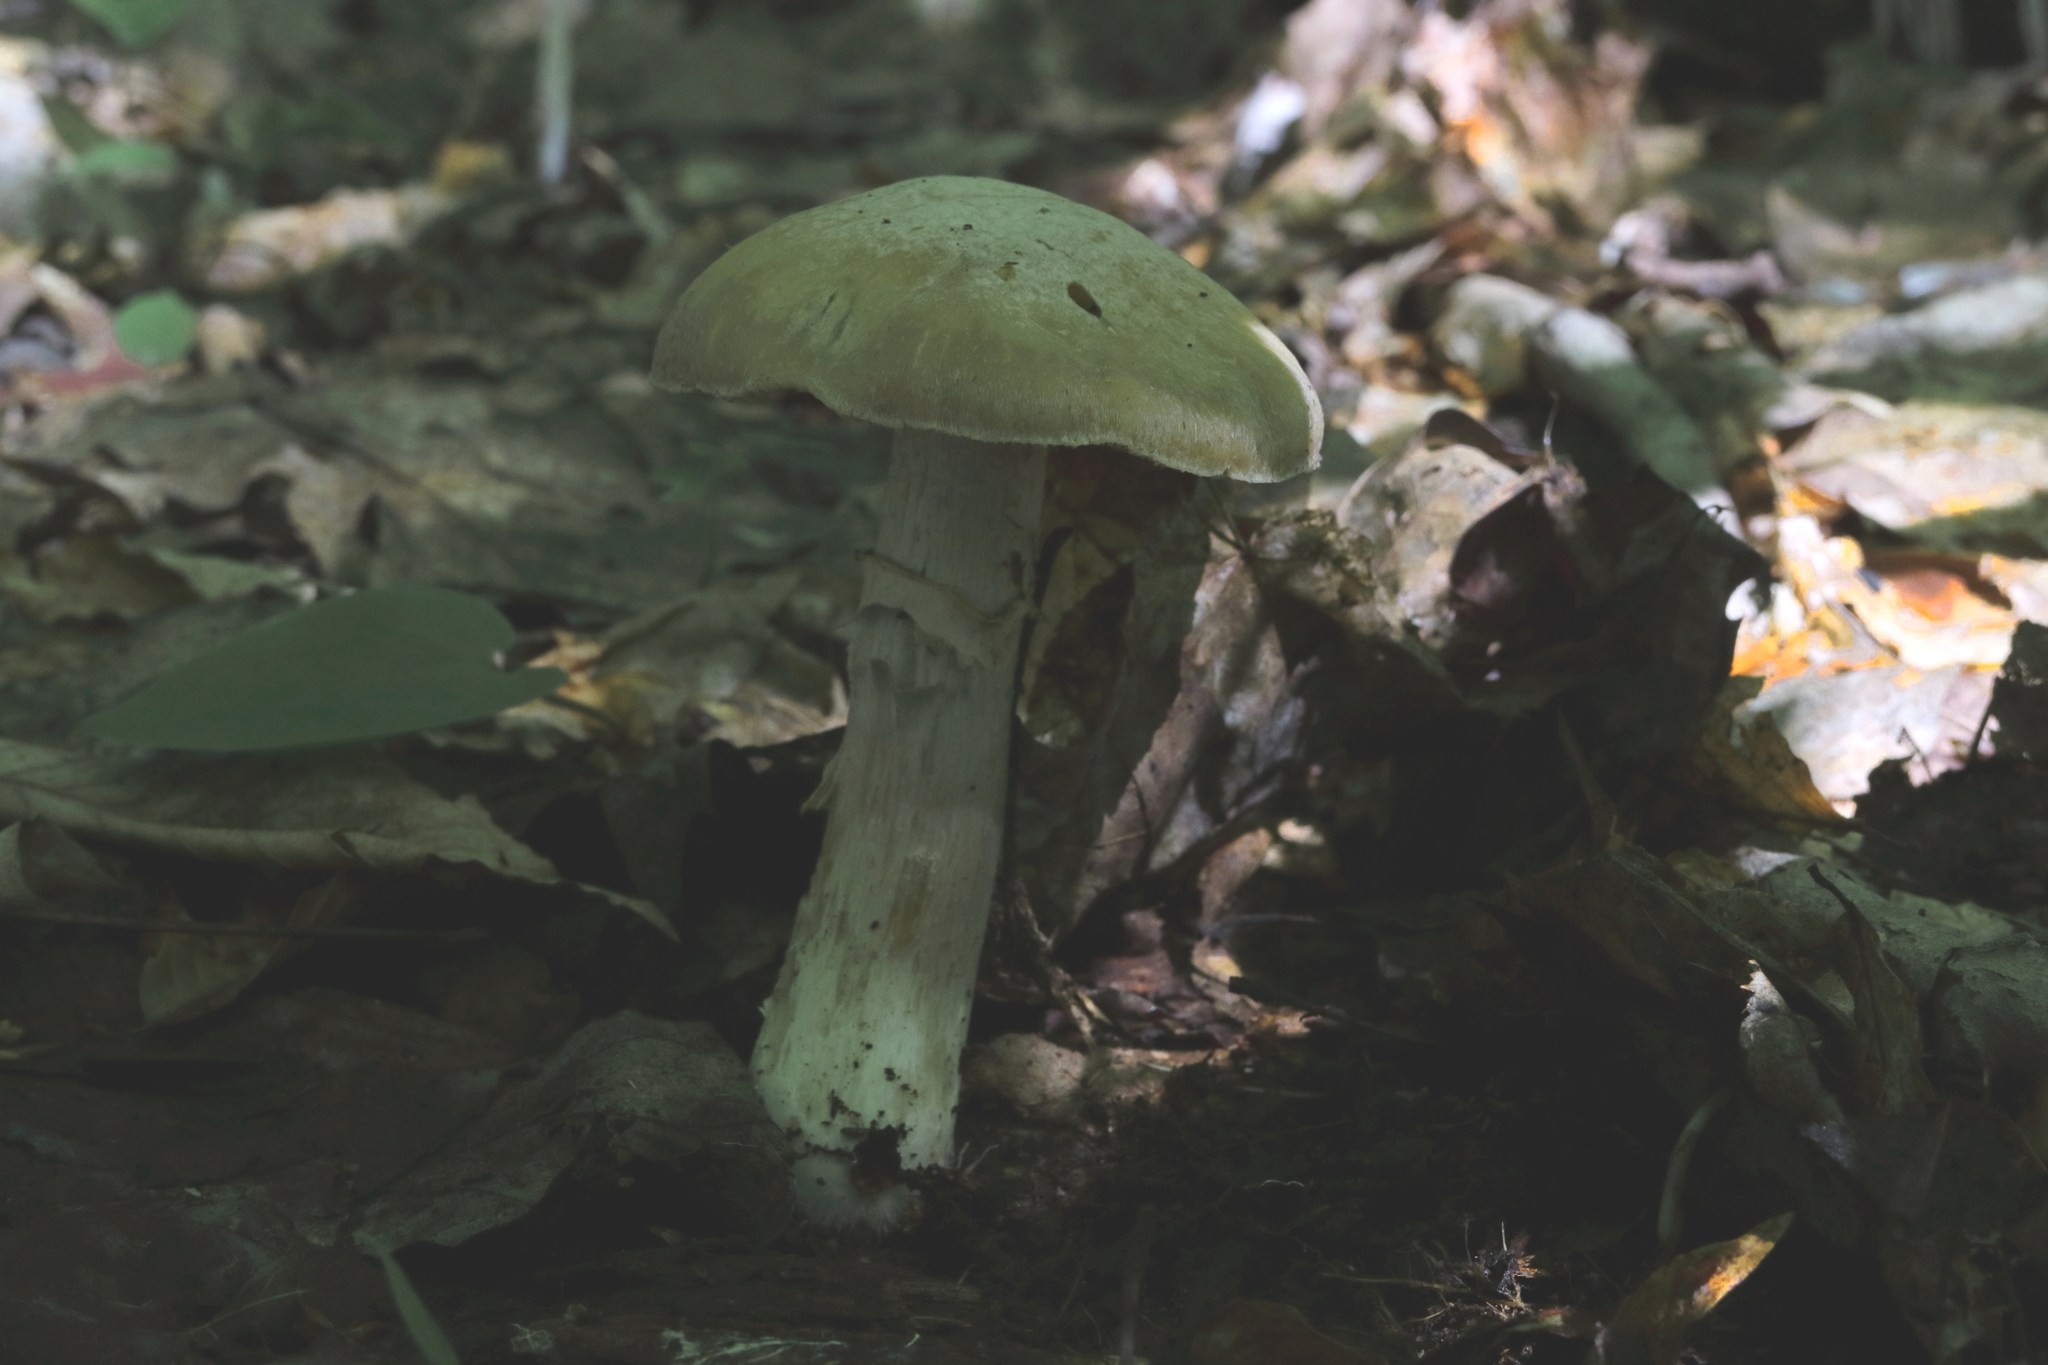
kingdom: Fungi
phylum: Basidiomycota
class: Agaricomycetes
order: Agaricales
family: Cortinariaceae
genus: Cortinarius
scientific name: Cortinarius caperatus
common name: The gypsy
